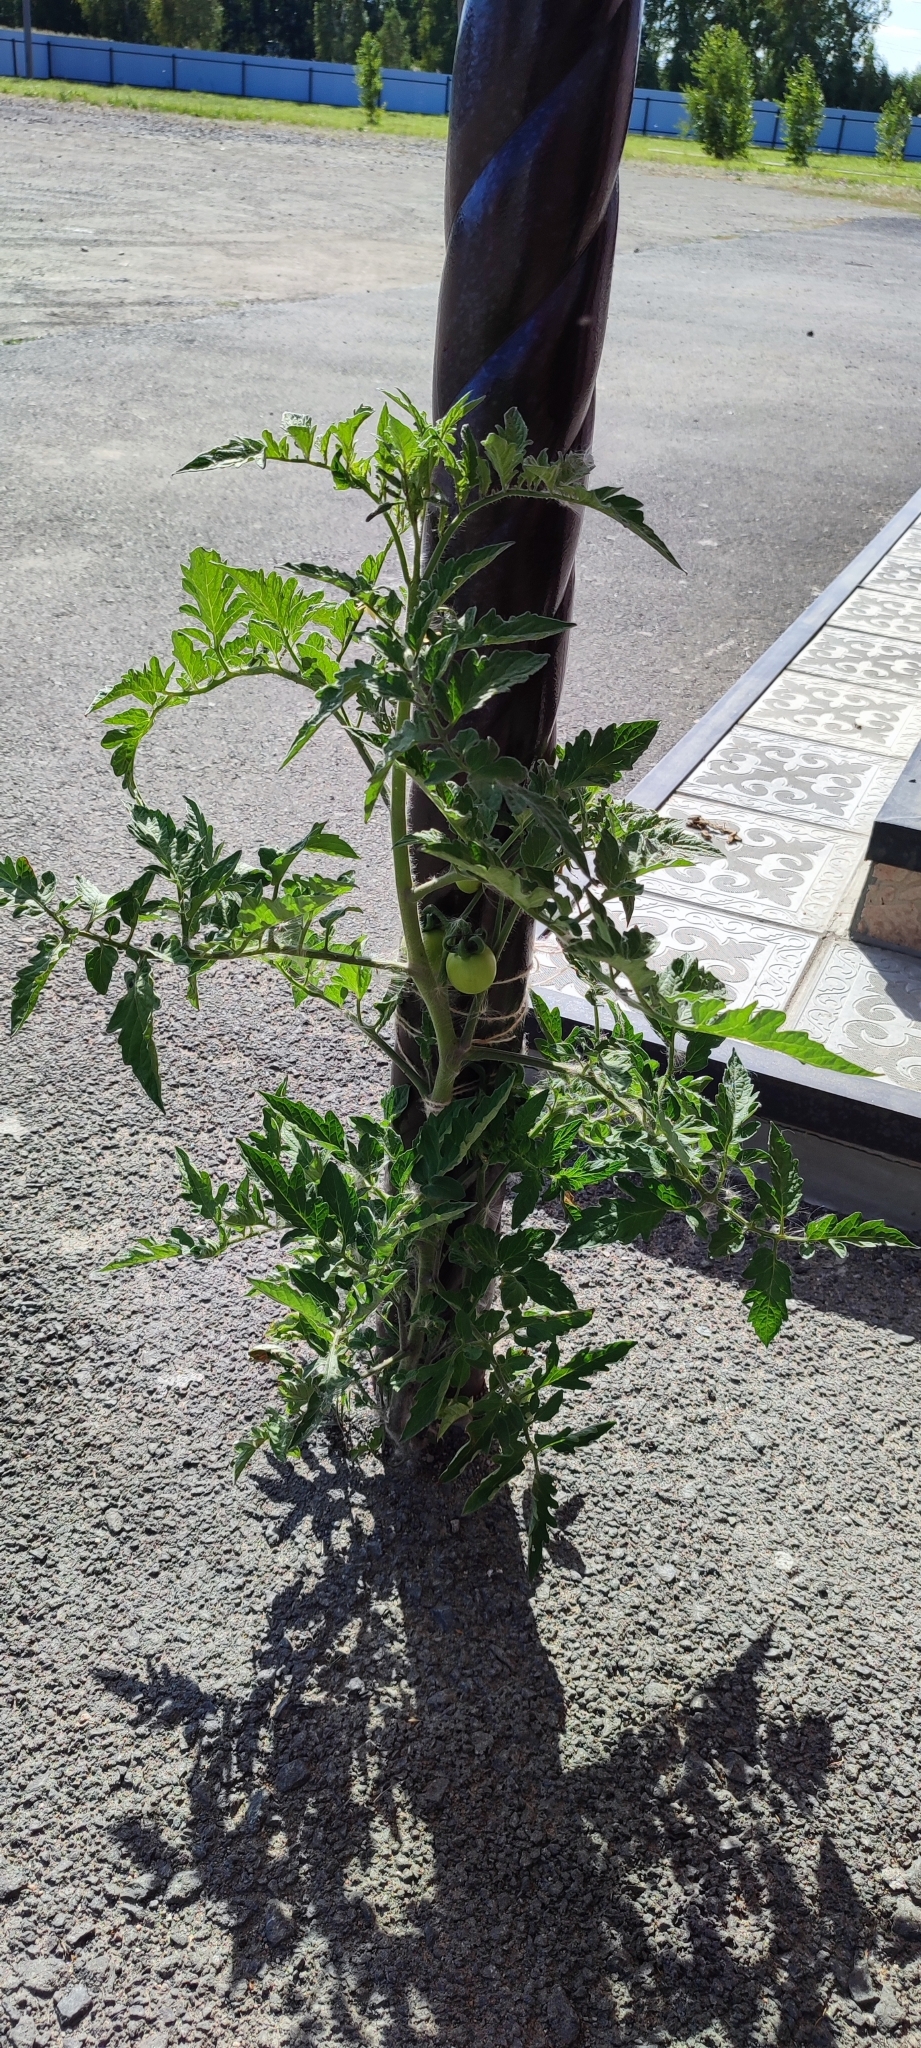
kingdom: Plantae
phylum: Tracheophyta
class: Magnoliopsida
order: Solanales
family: Solanaceae
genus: Solanum
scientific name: Solanum lycopersicum
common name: Garden tomato
